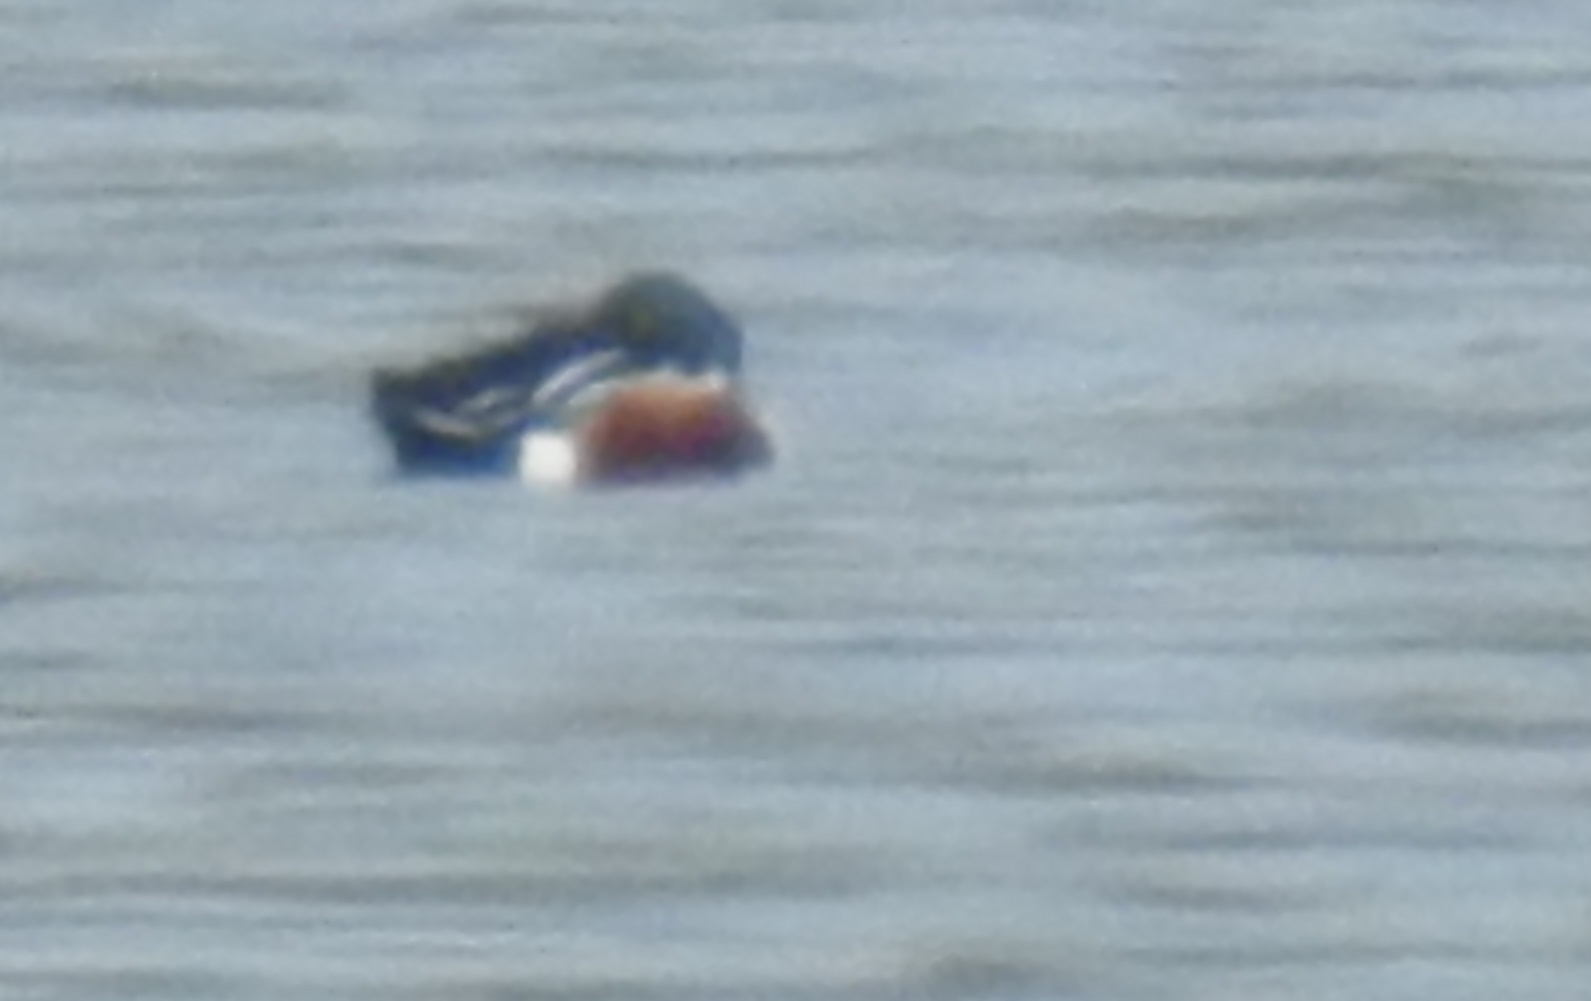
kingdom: Animalia
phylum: Chordata
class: Aves
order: Anseriformes
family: Anatidae
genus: Spatula
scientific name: Spatula clypeata
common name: Northern shoveler
